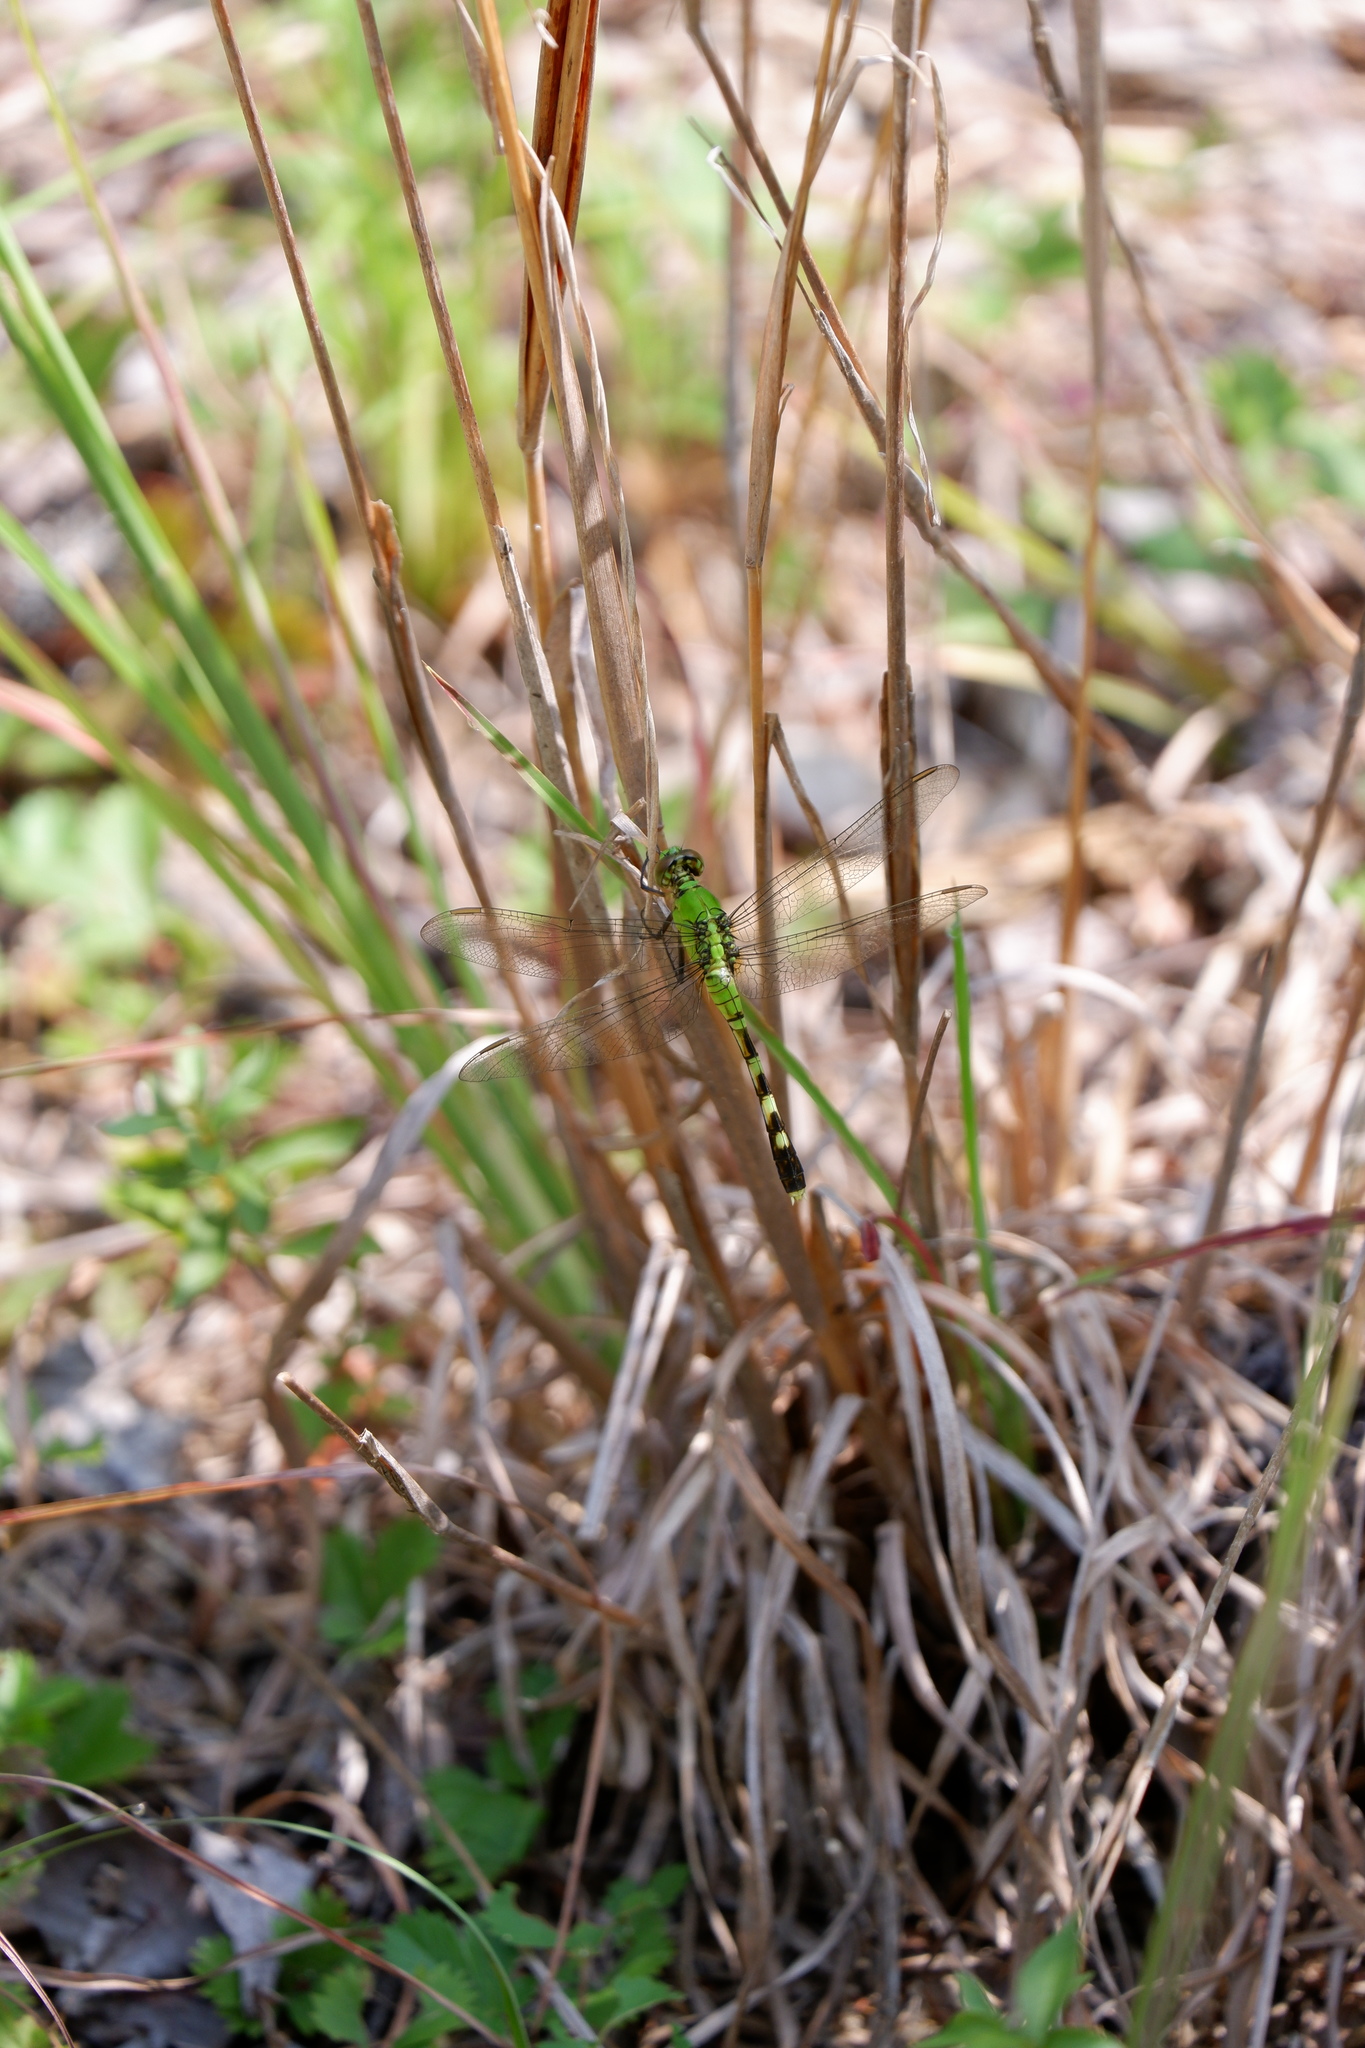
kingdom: Animalia
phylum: Arthropoda
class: Insecta
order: Odonata
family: Libellulidae
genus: Erythemis
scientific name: Erythemis simplicicollis
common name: Eastern pondhawk
